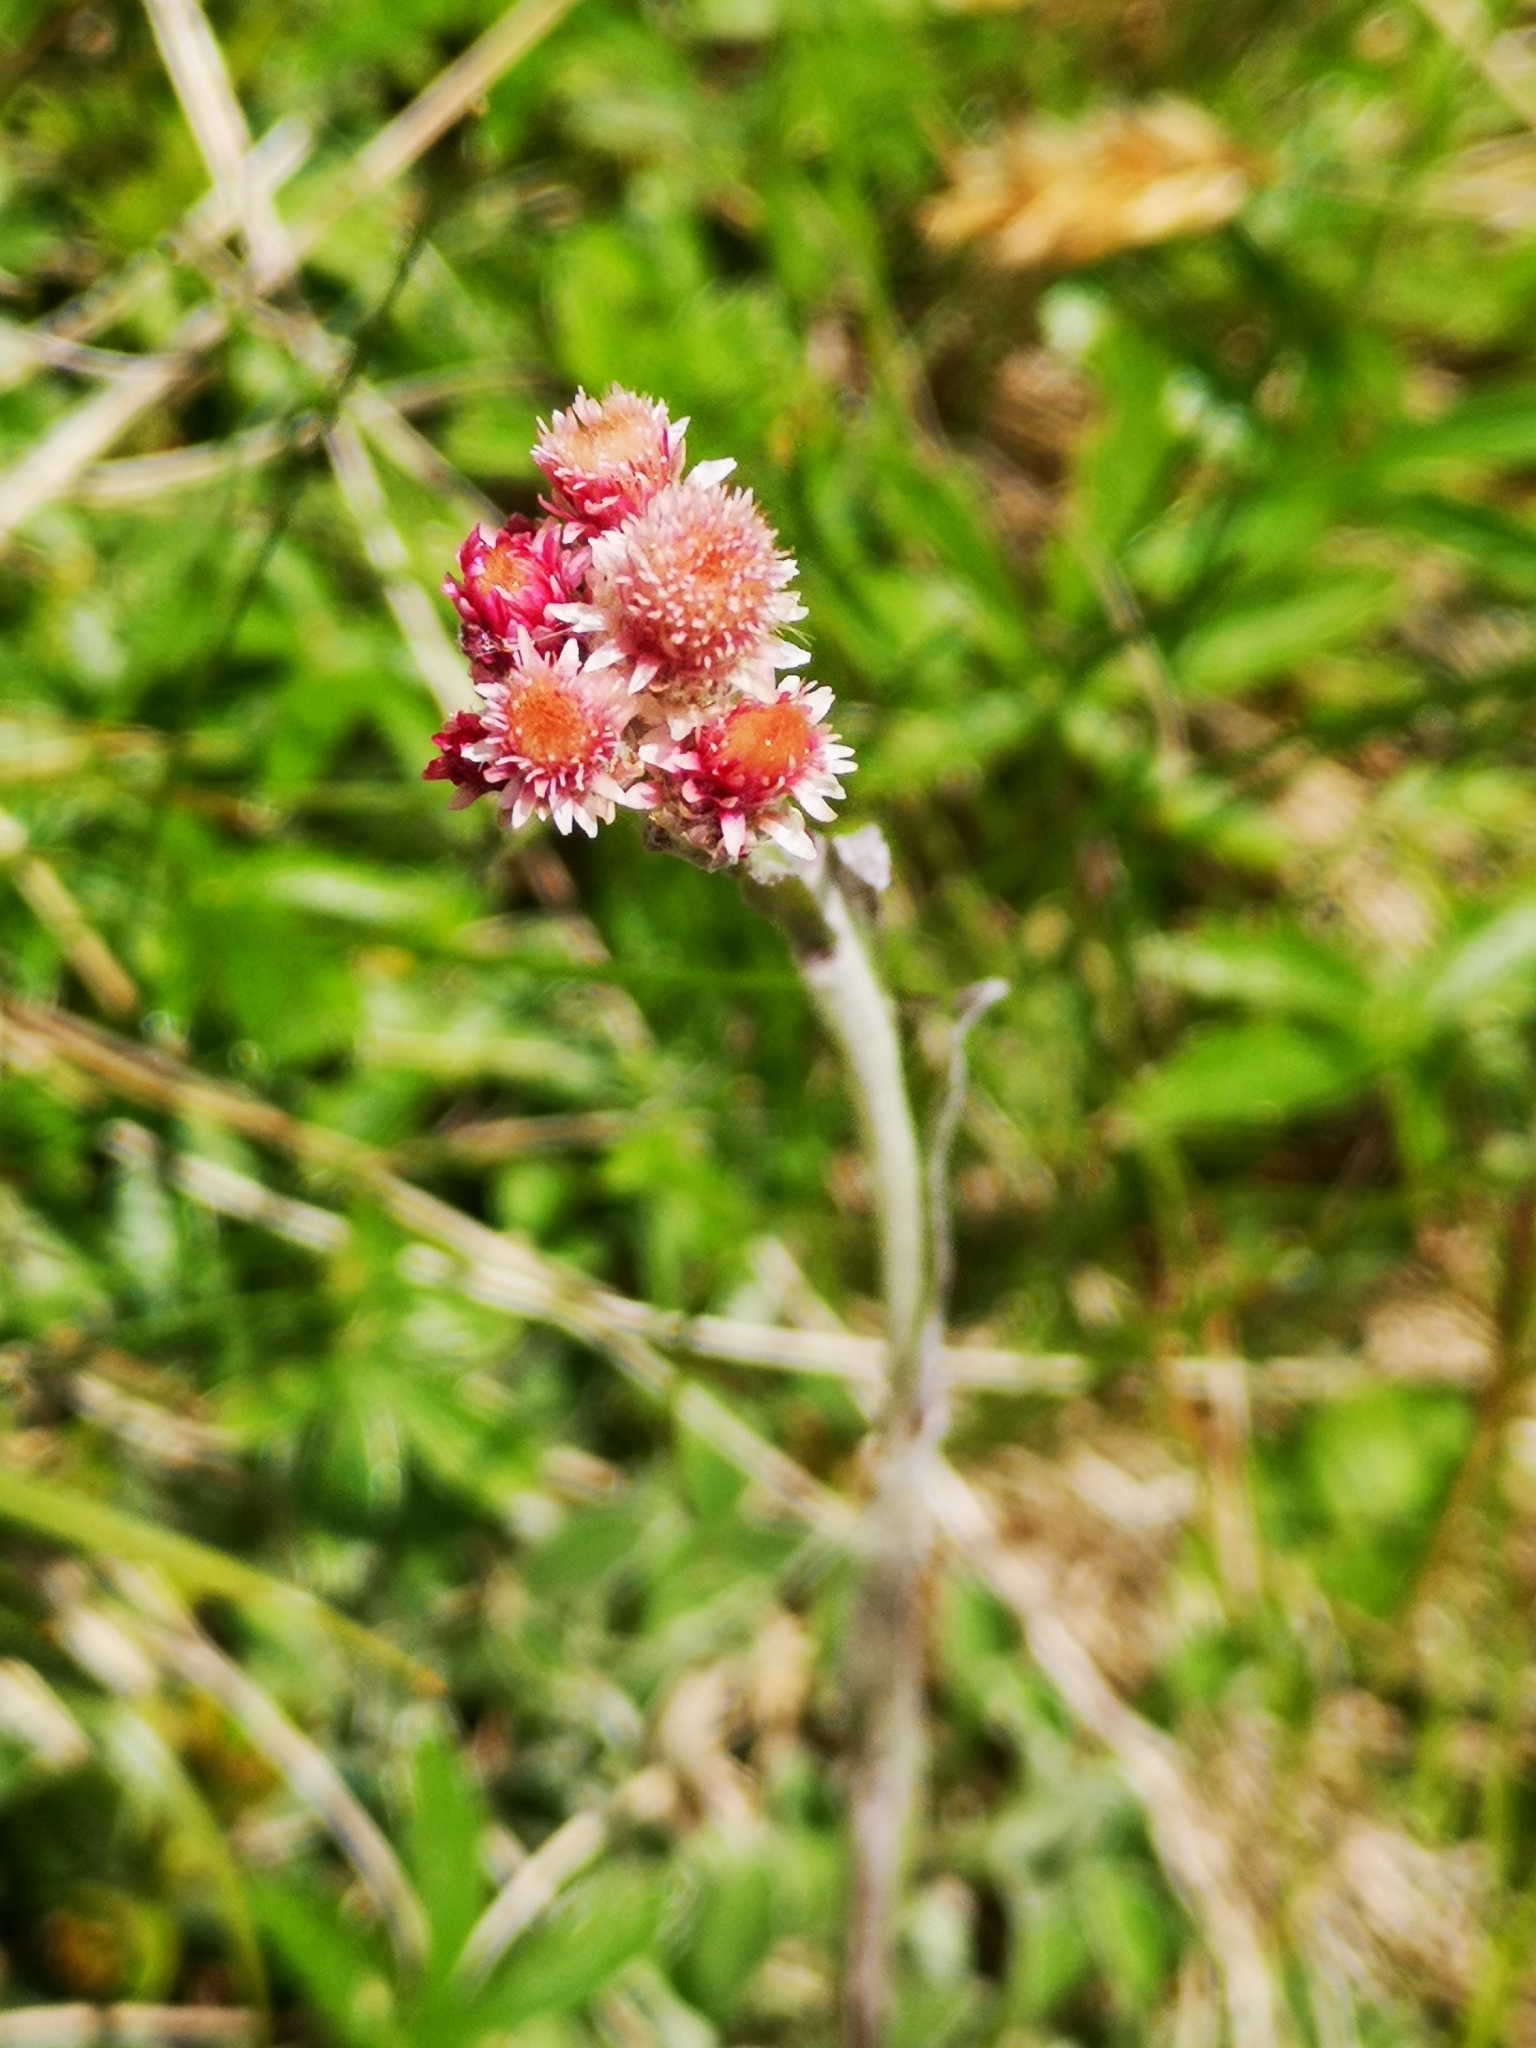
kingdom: Plantae
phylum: Tracheophyta
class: Magnoliopsida
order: Asterales
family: Asteraceae
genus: Antennaria
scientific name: Antennaria dioica
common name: Mountain everlasting
